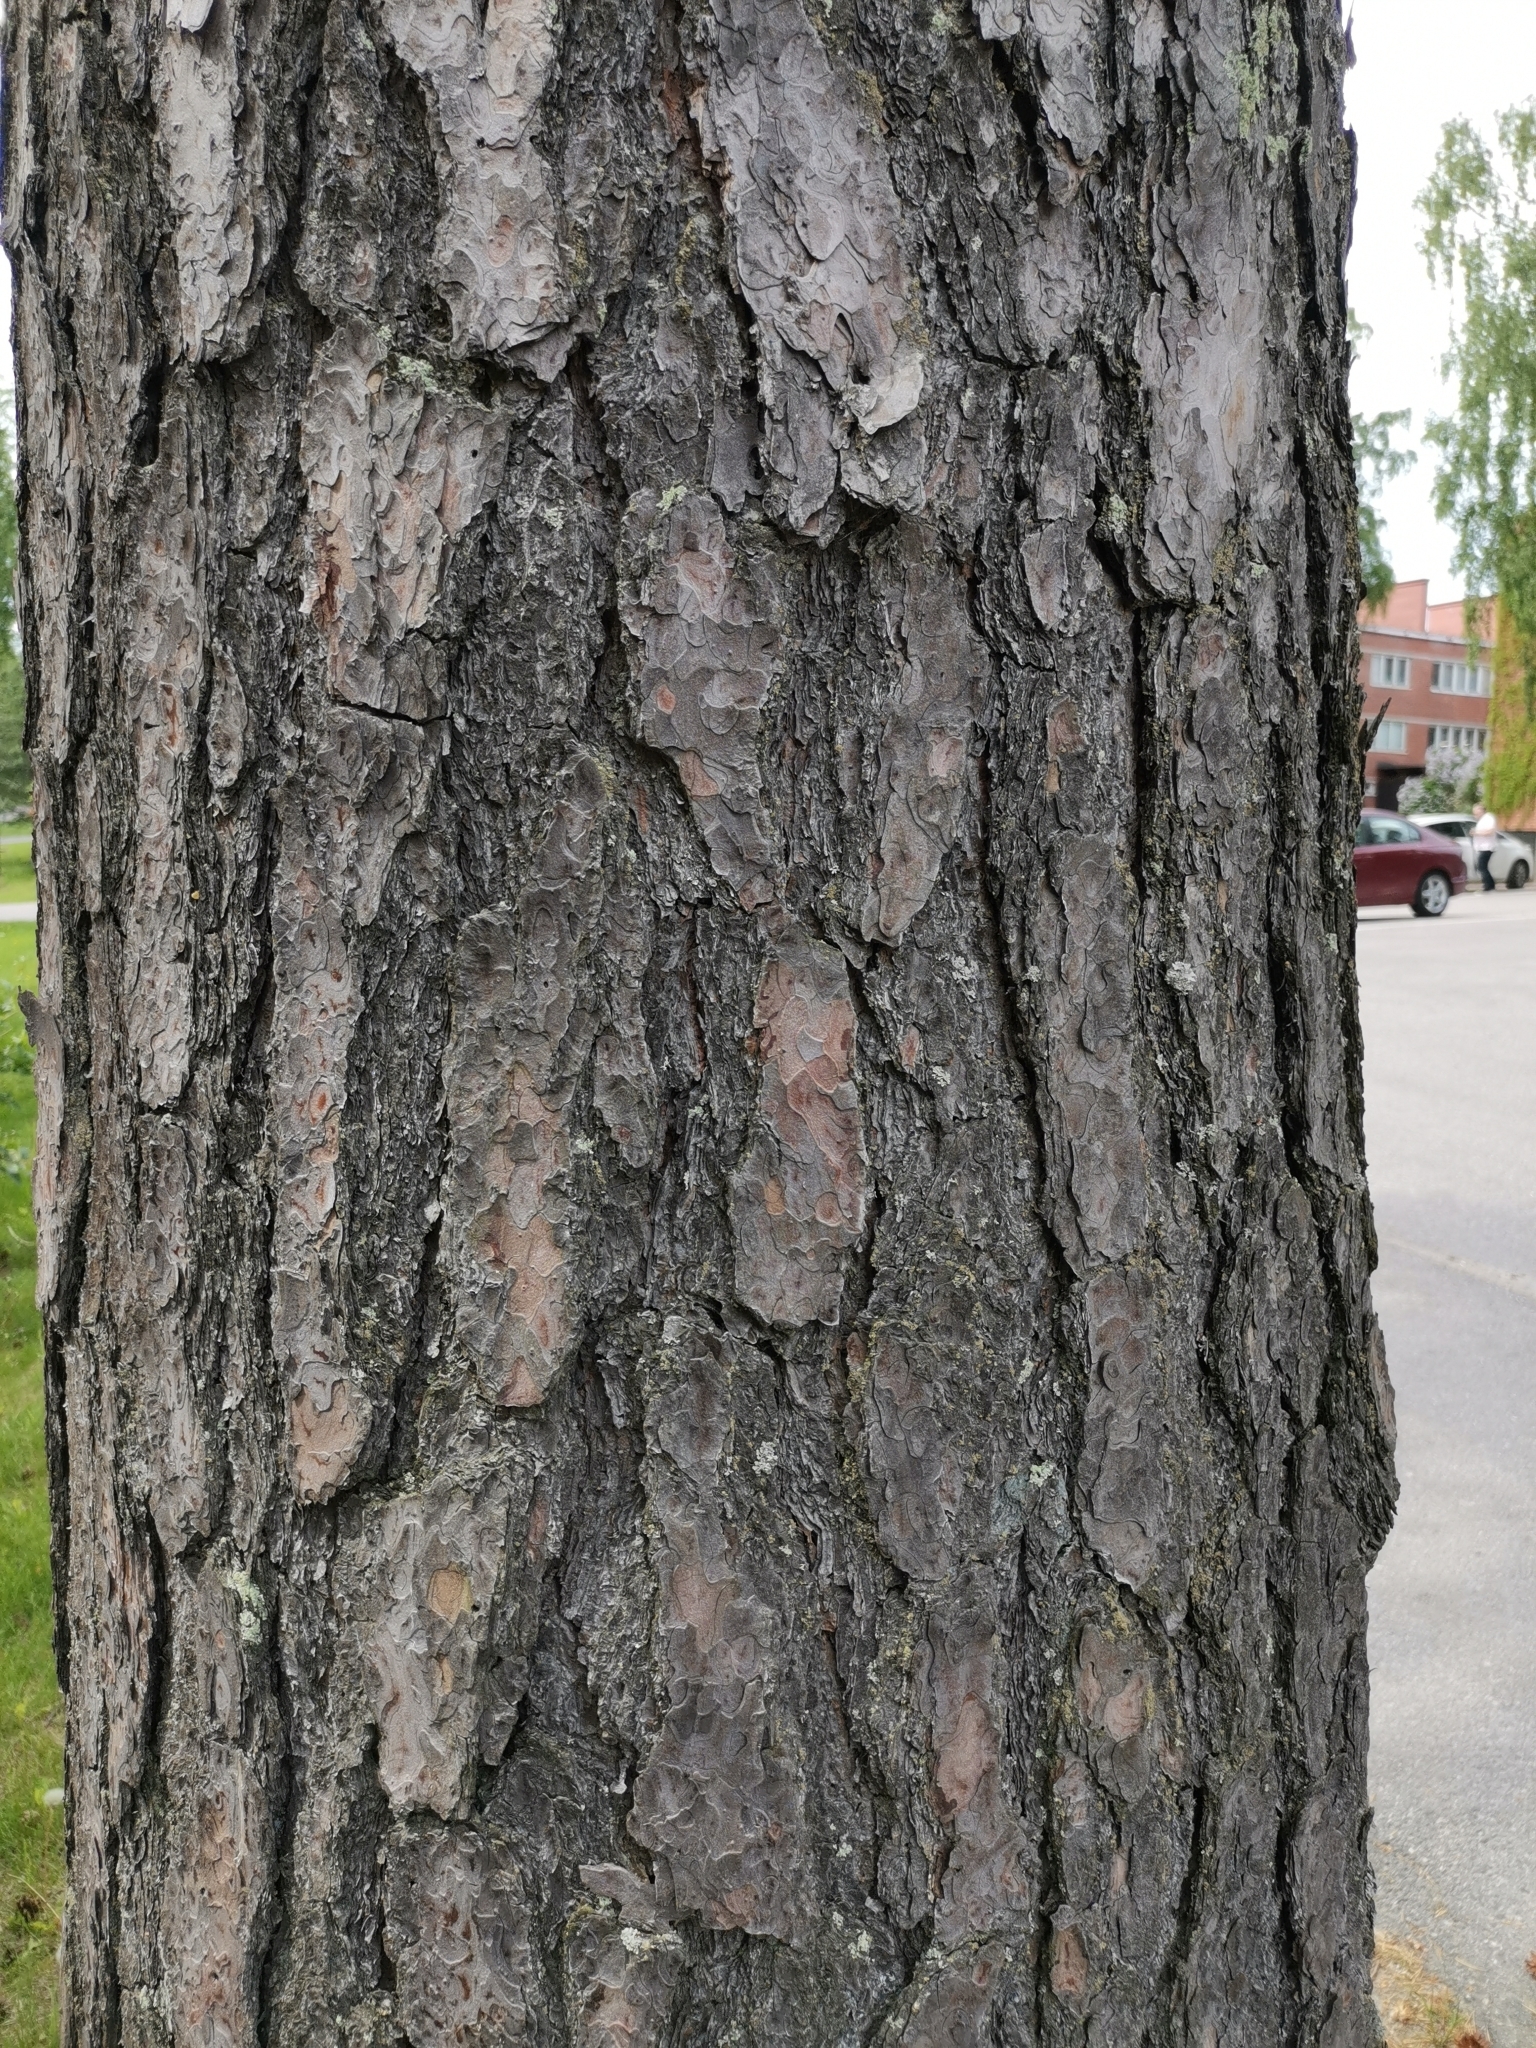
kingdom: Plantae
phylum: Tracheophyta
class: Pinopsida
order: Pinales
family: Pinaceae
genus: Pinus
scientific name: Pinus sylvestris
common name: Scots pine
